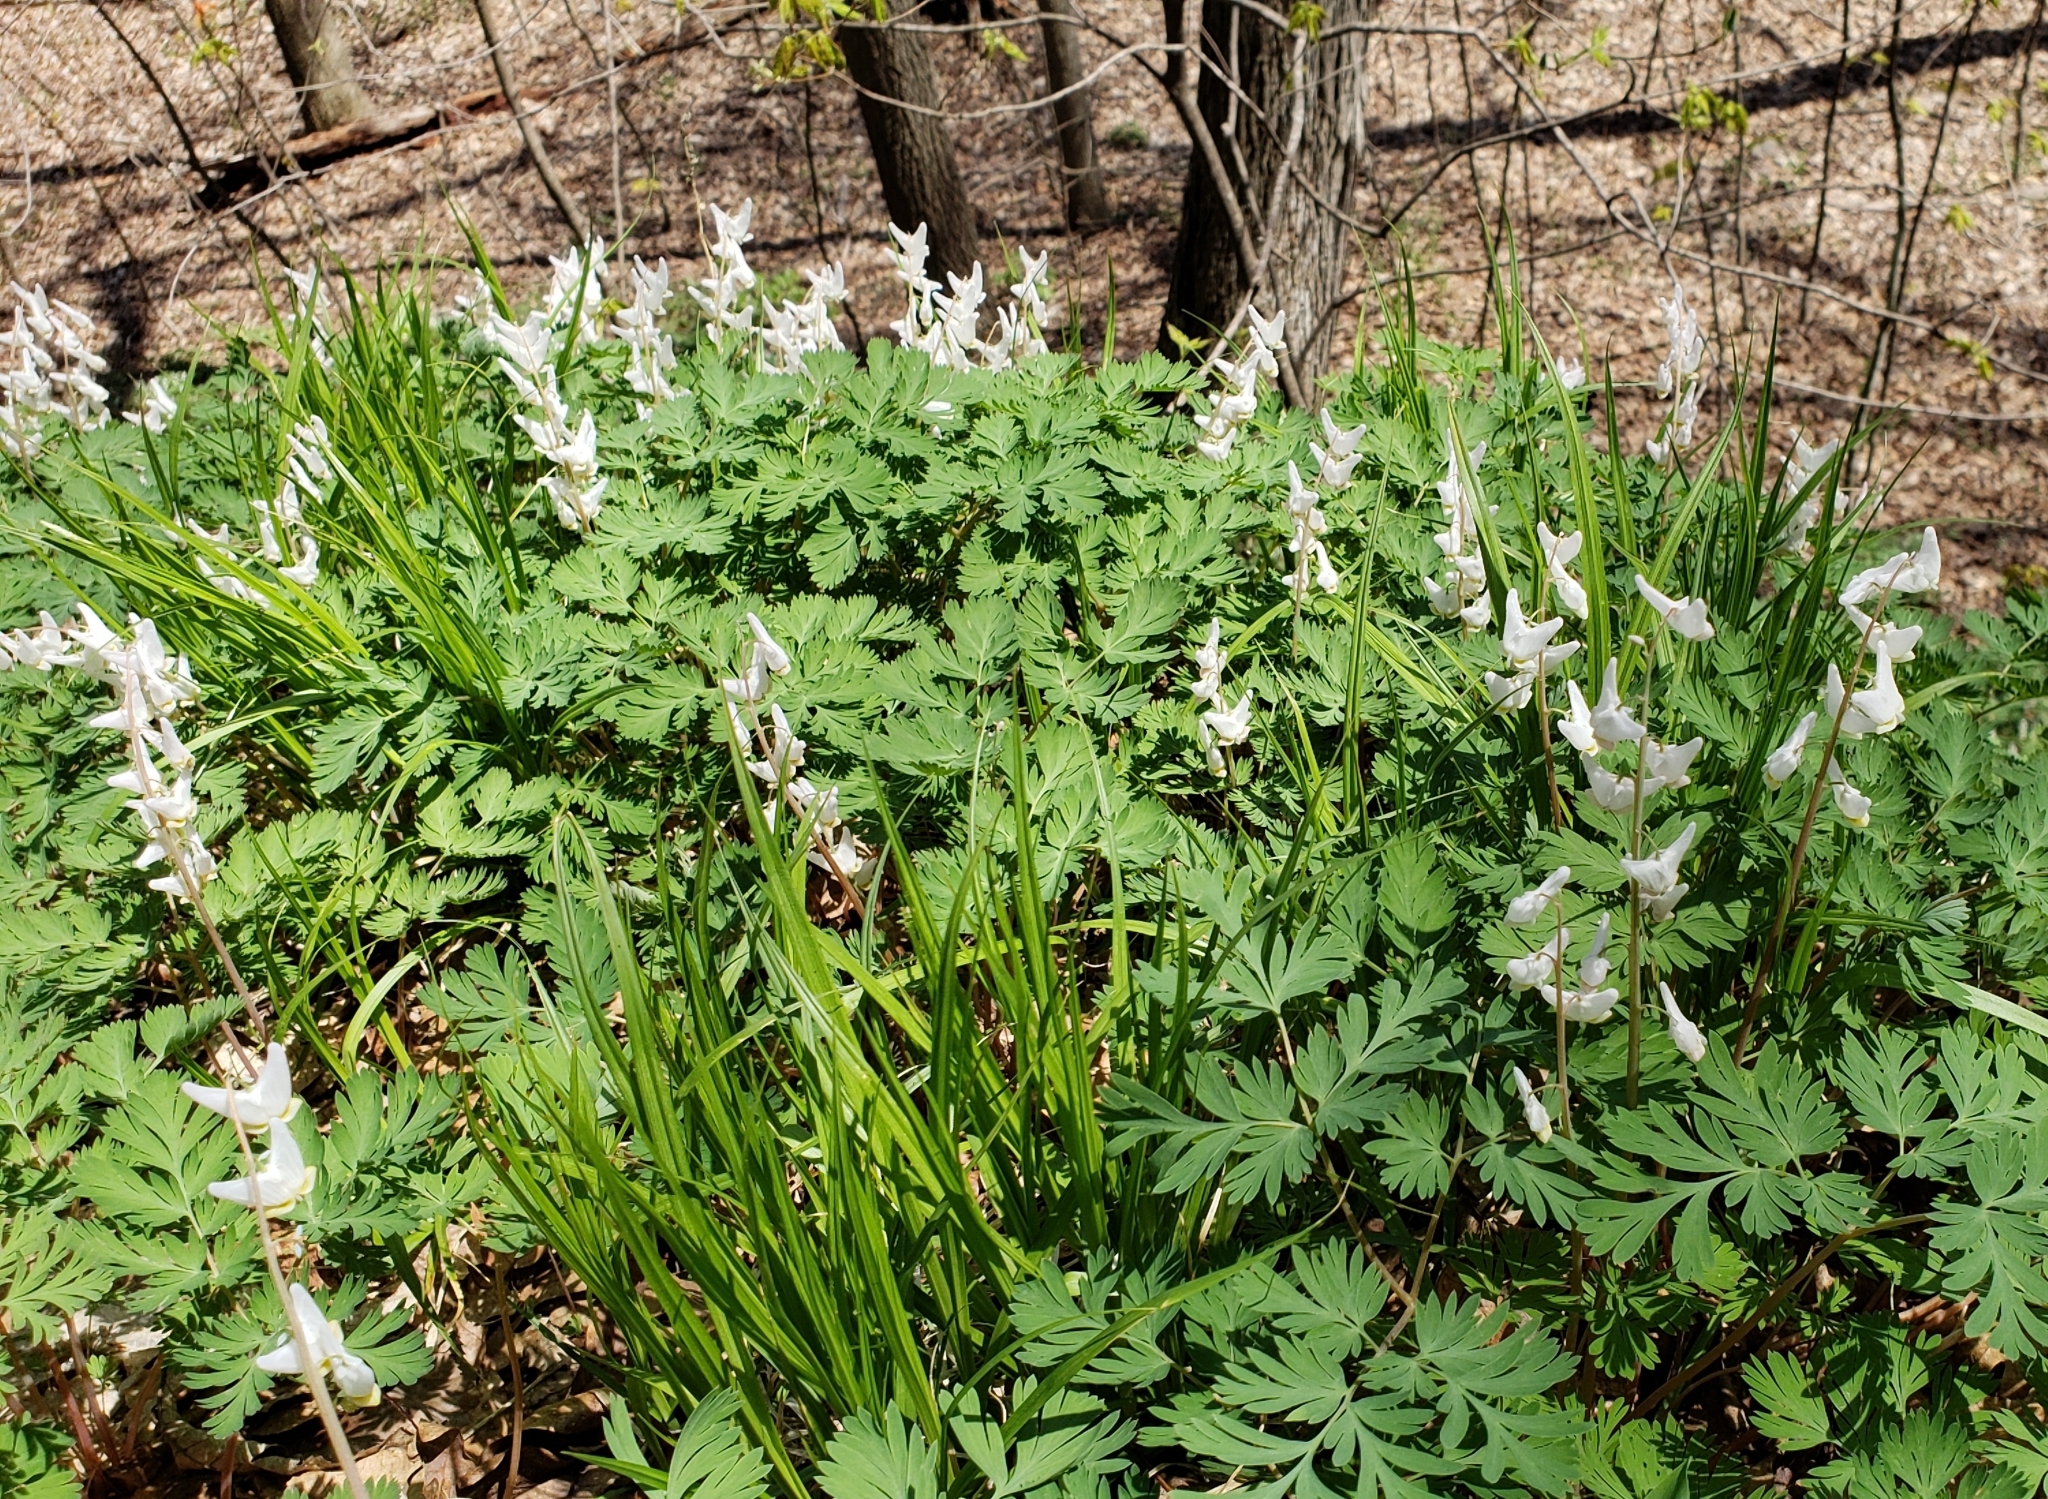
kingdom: Plantae
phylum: Tracheophyta
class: Magnoliopsida
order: Ranunculales
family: Papaveraceae
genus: Dicentra
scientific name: Dicentra cucullaria
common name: Dutchman's breeches
